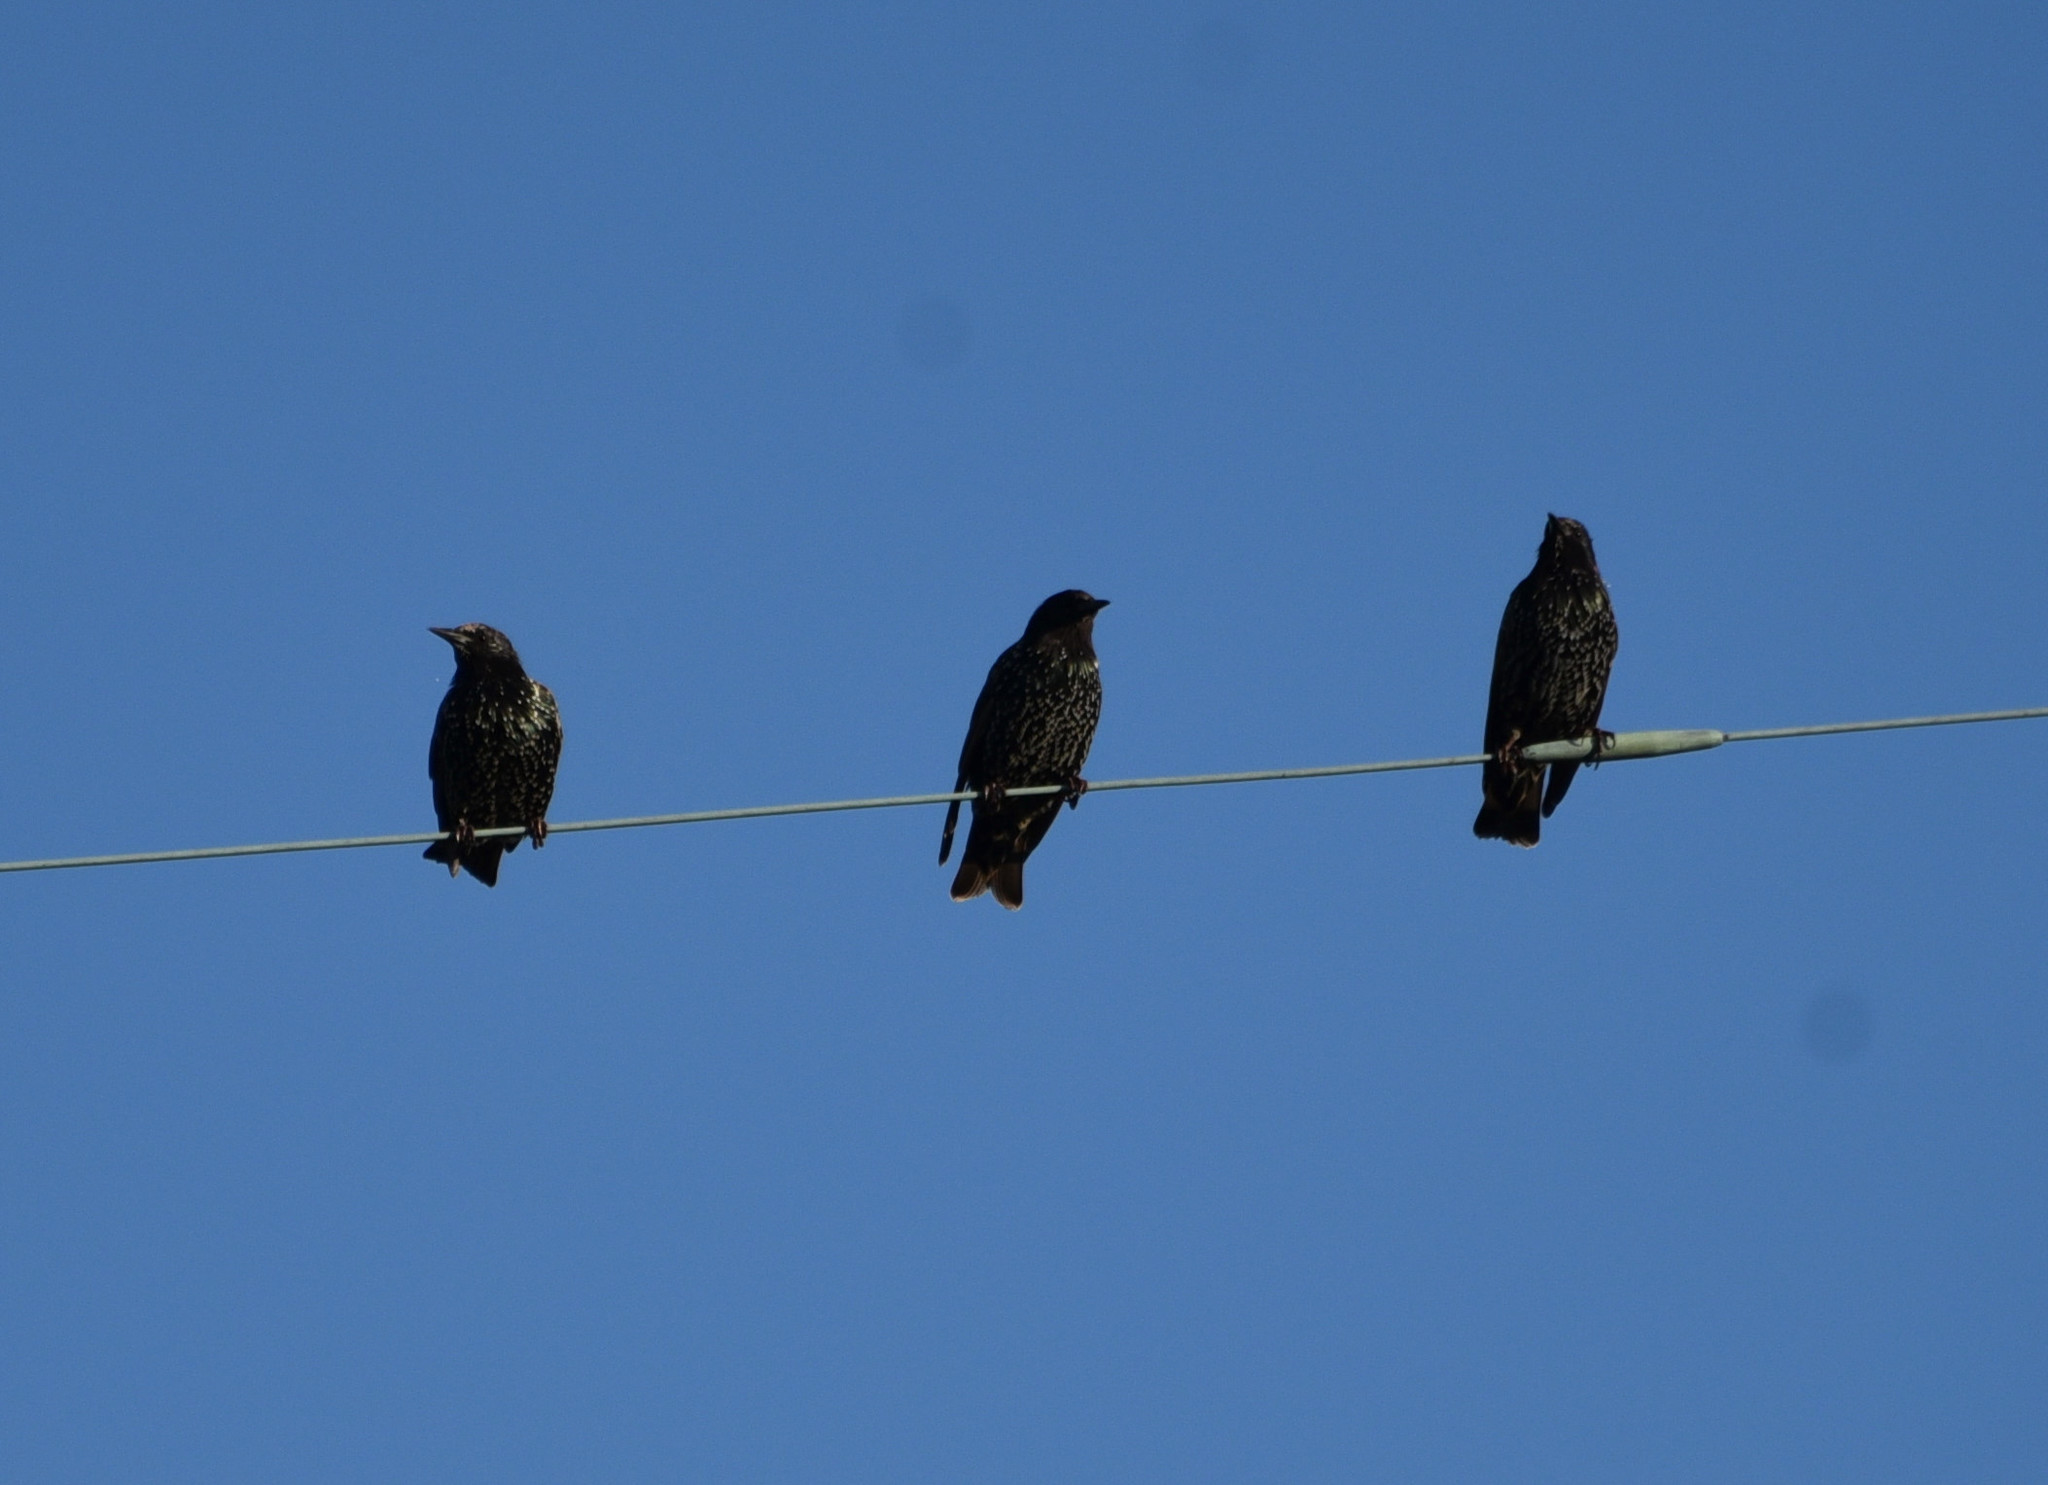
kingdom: Animalia
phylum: Chordata
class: Aves
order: Passeriformes
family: Sturnidae
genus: Sturnus
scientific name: Sturnus vulgaris
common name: Common starling
